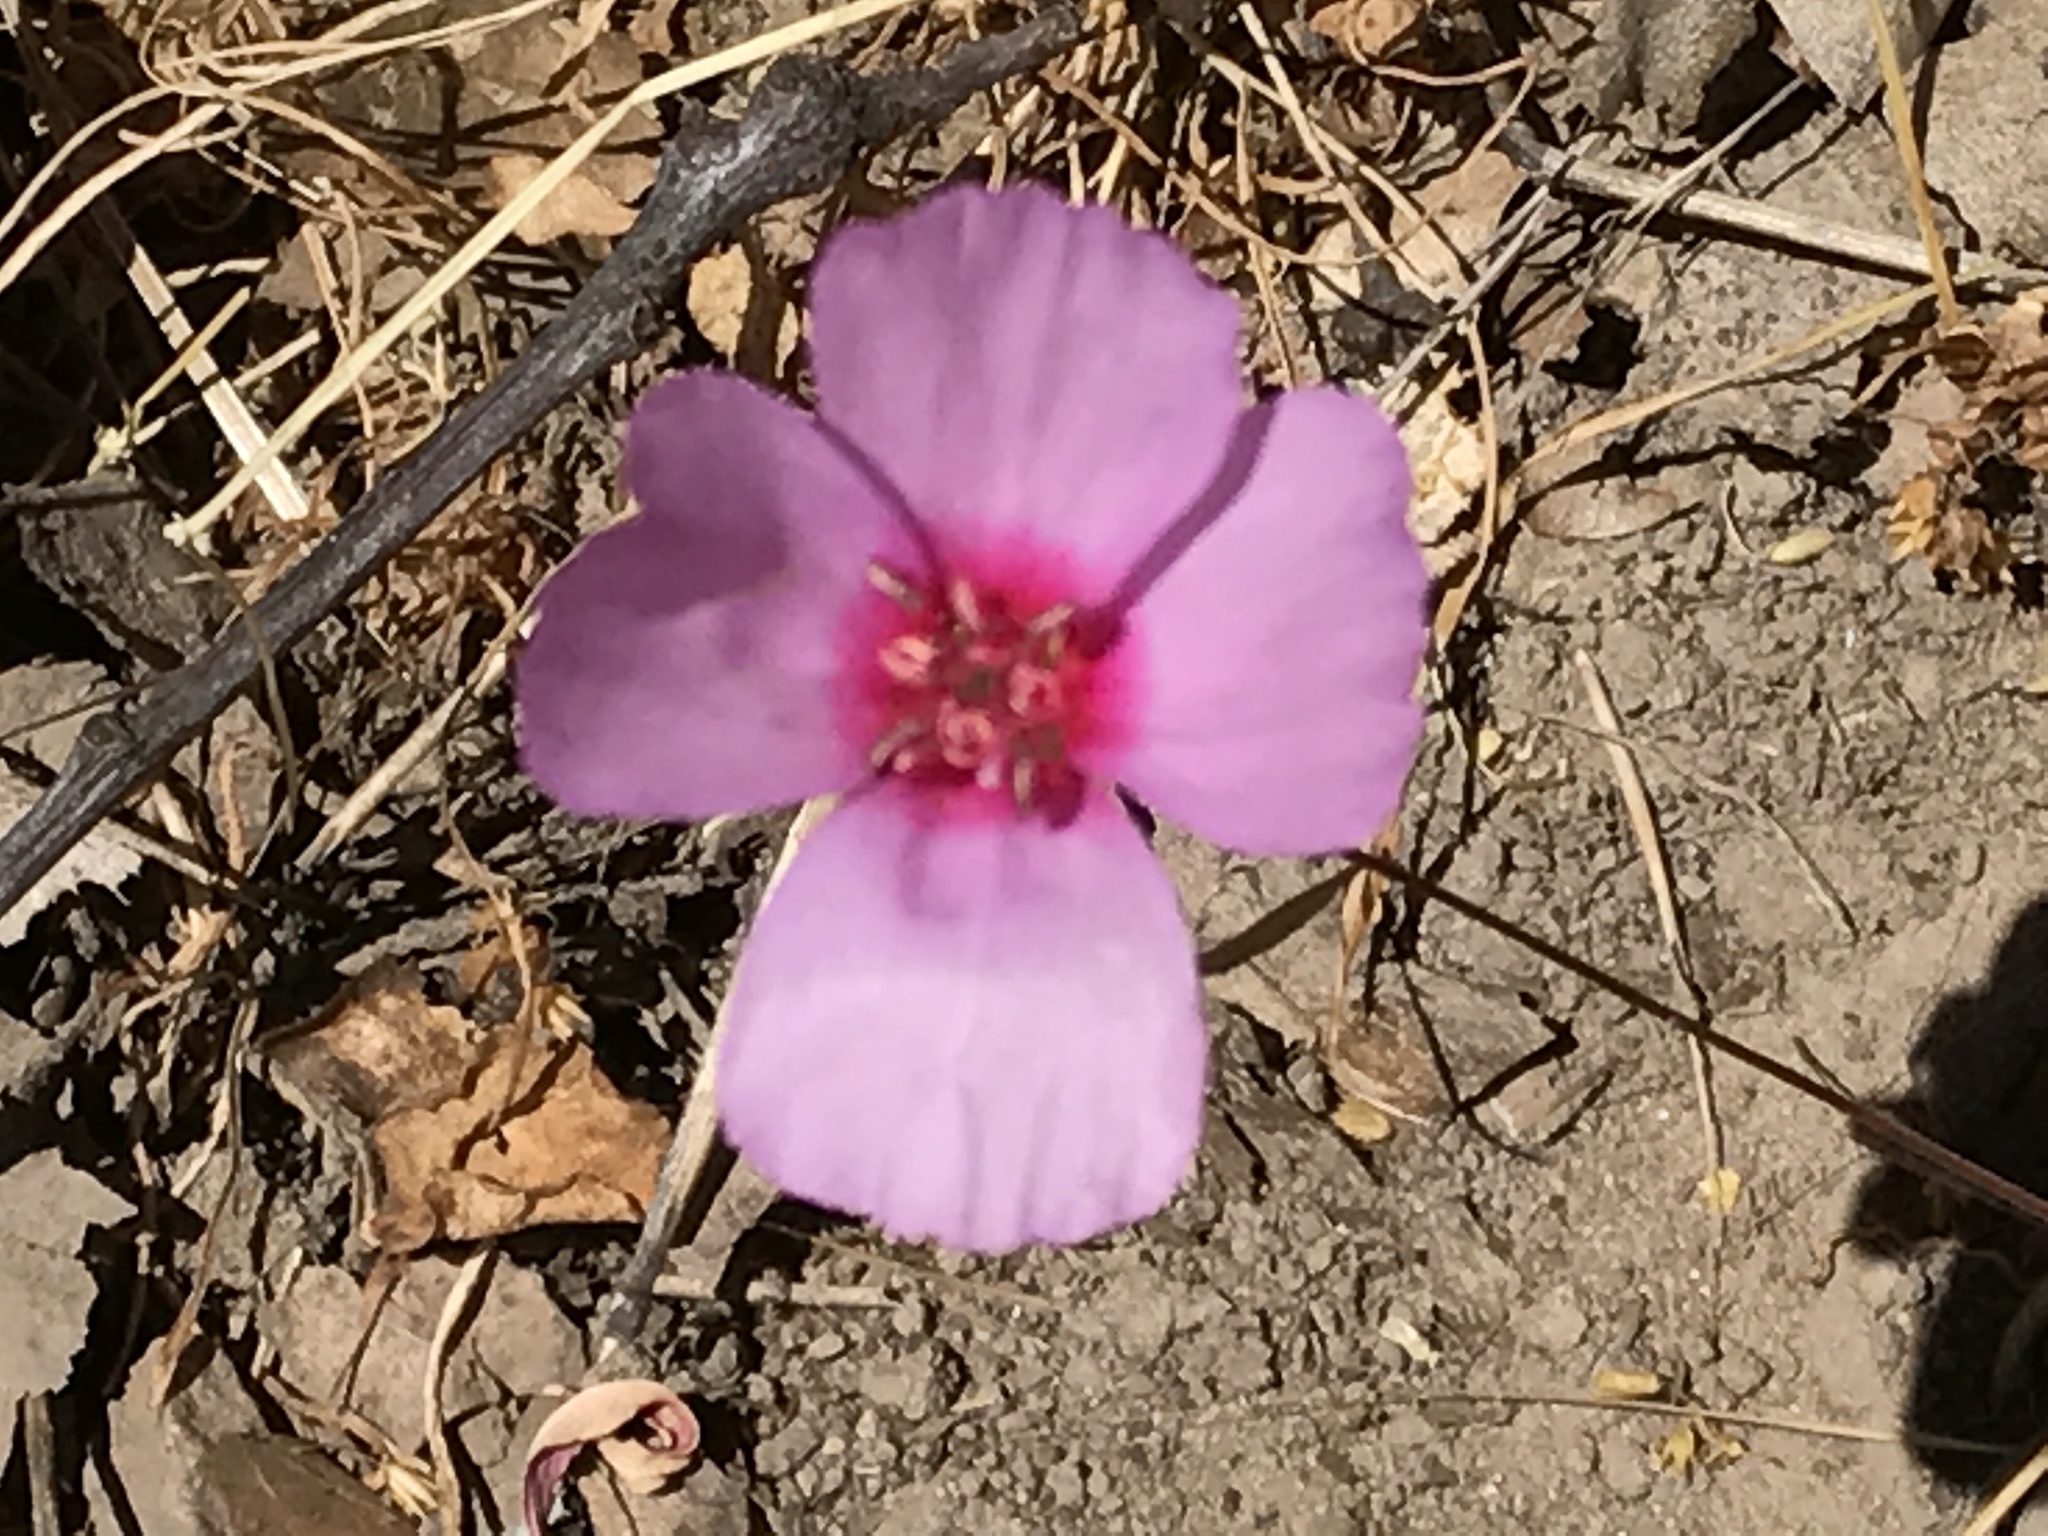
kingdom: Plantae
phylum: Tracheophyta
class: Magnoliopsida
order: Myrtales
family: Onagraceae
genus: Clarkia
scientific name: Clarkia rubicunda
